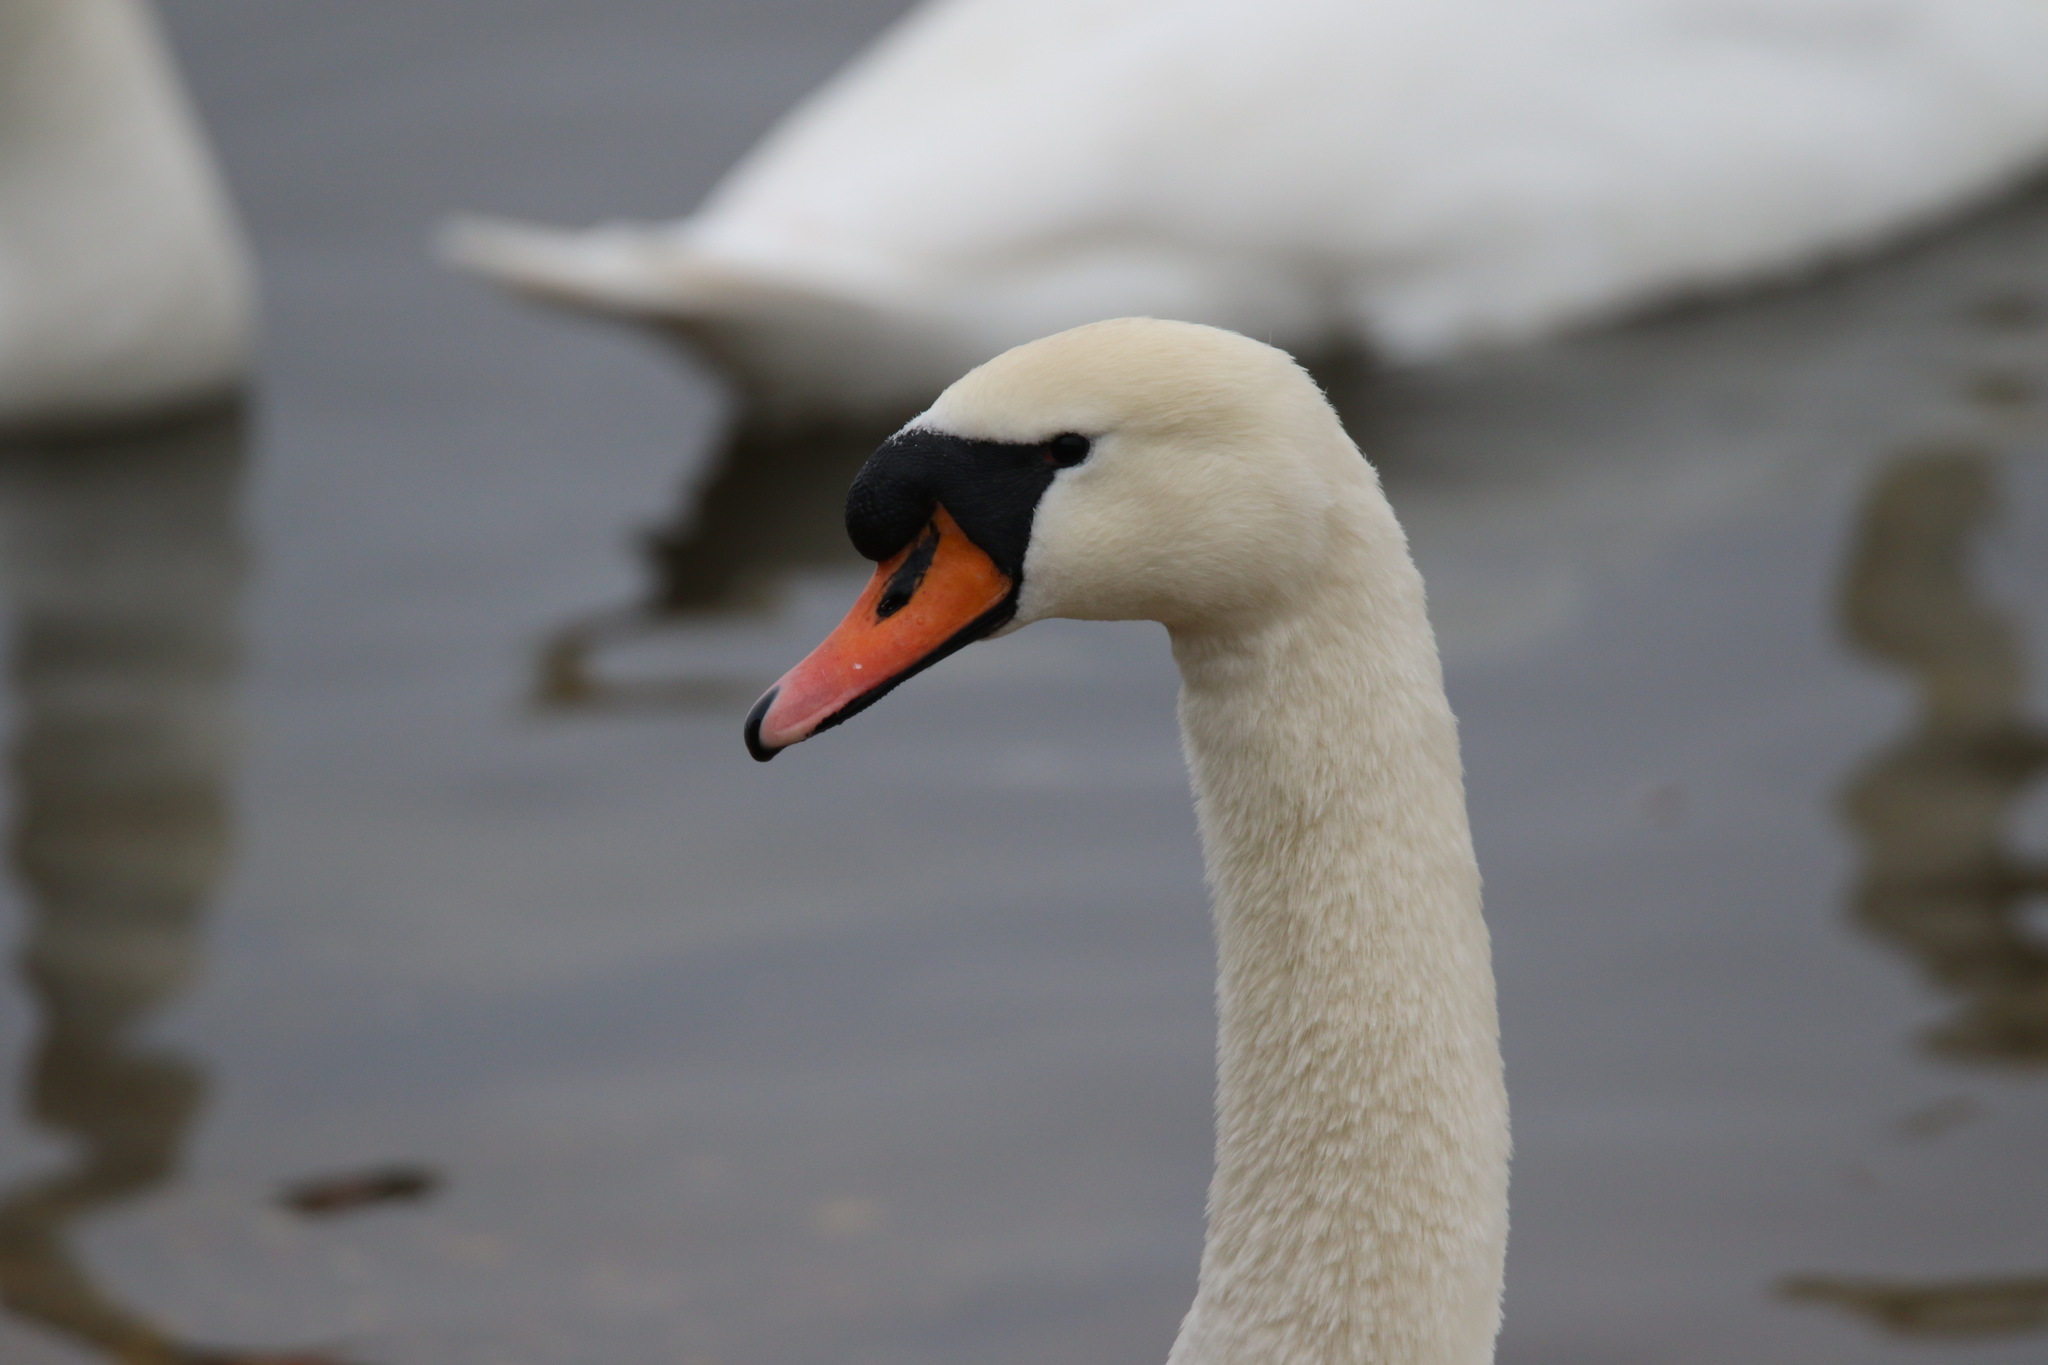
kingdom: Animalia
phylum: Chordata
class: Aves
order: Anseriformes
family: Anatidae
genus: Cygnus
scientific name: Cygnus olor
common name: Mute swan
